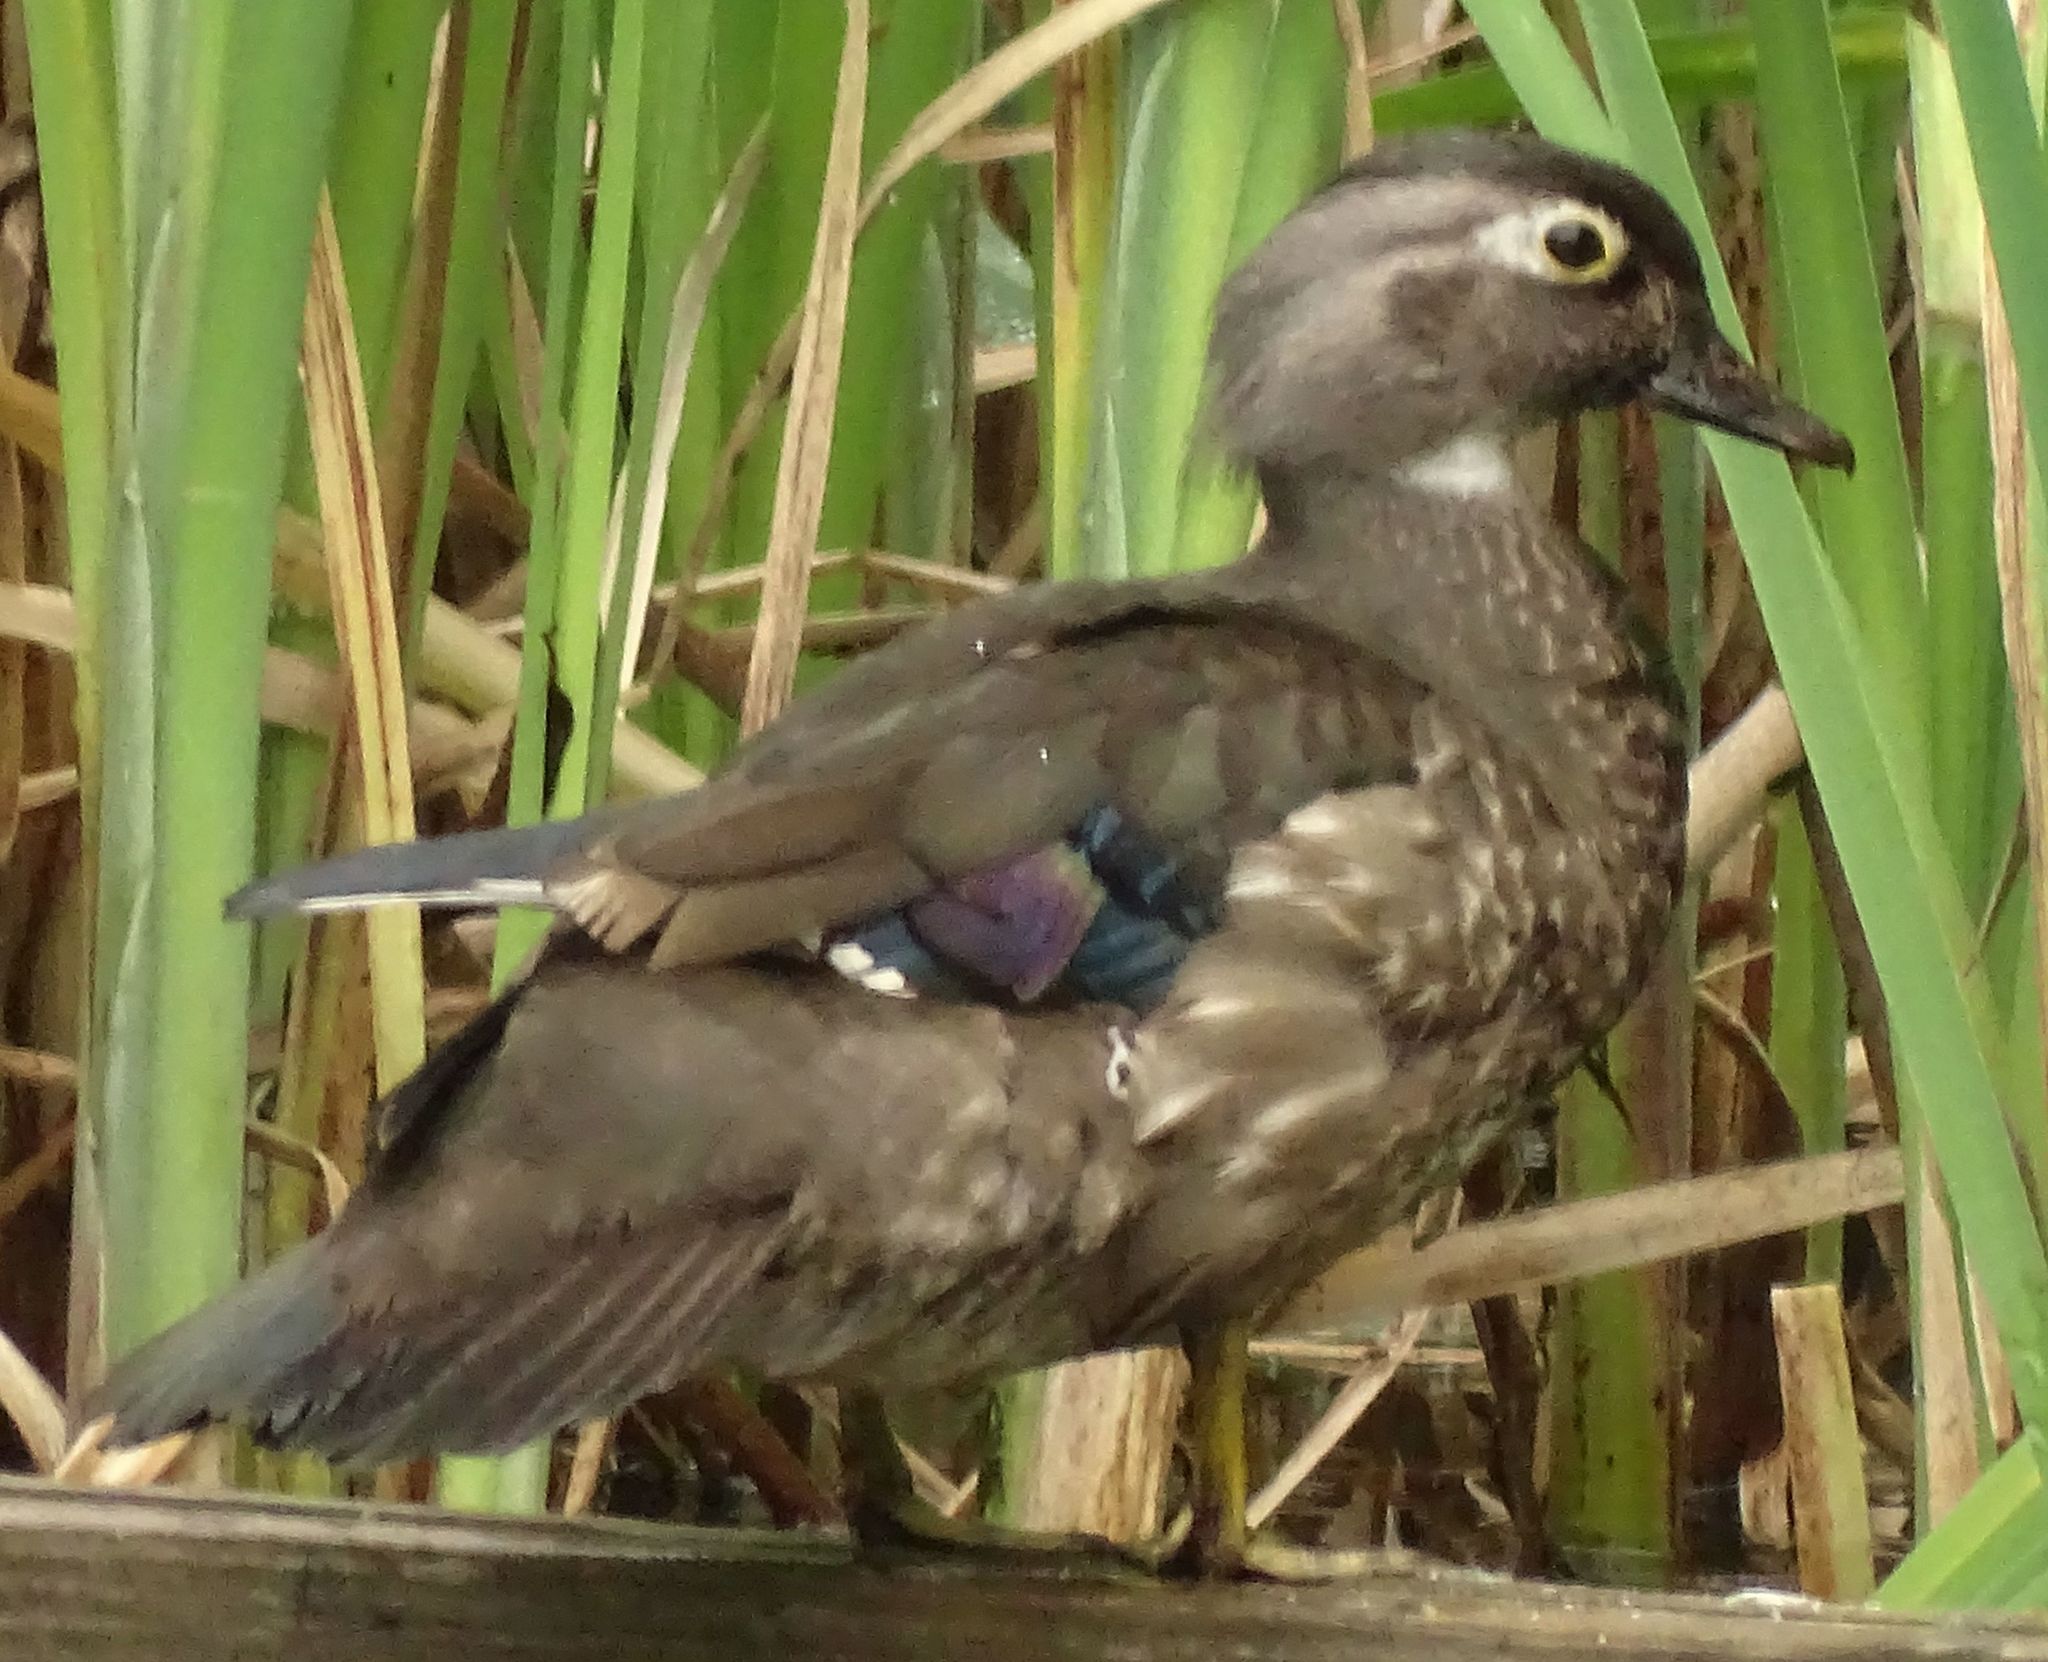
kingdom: Animalia
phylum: Chordata
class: Aves
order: Anseriformes
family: Anatidae
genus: Aix
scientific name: Aix sponsa
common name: Wood duck
